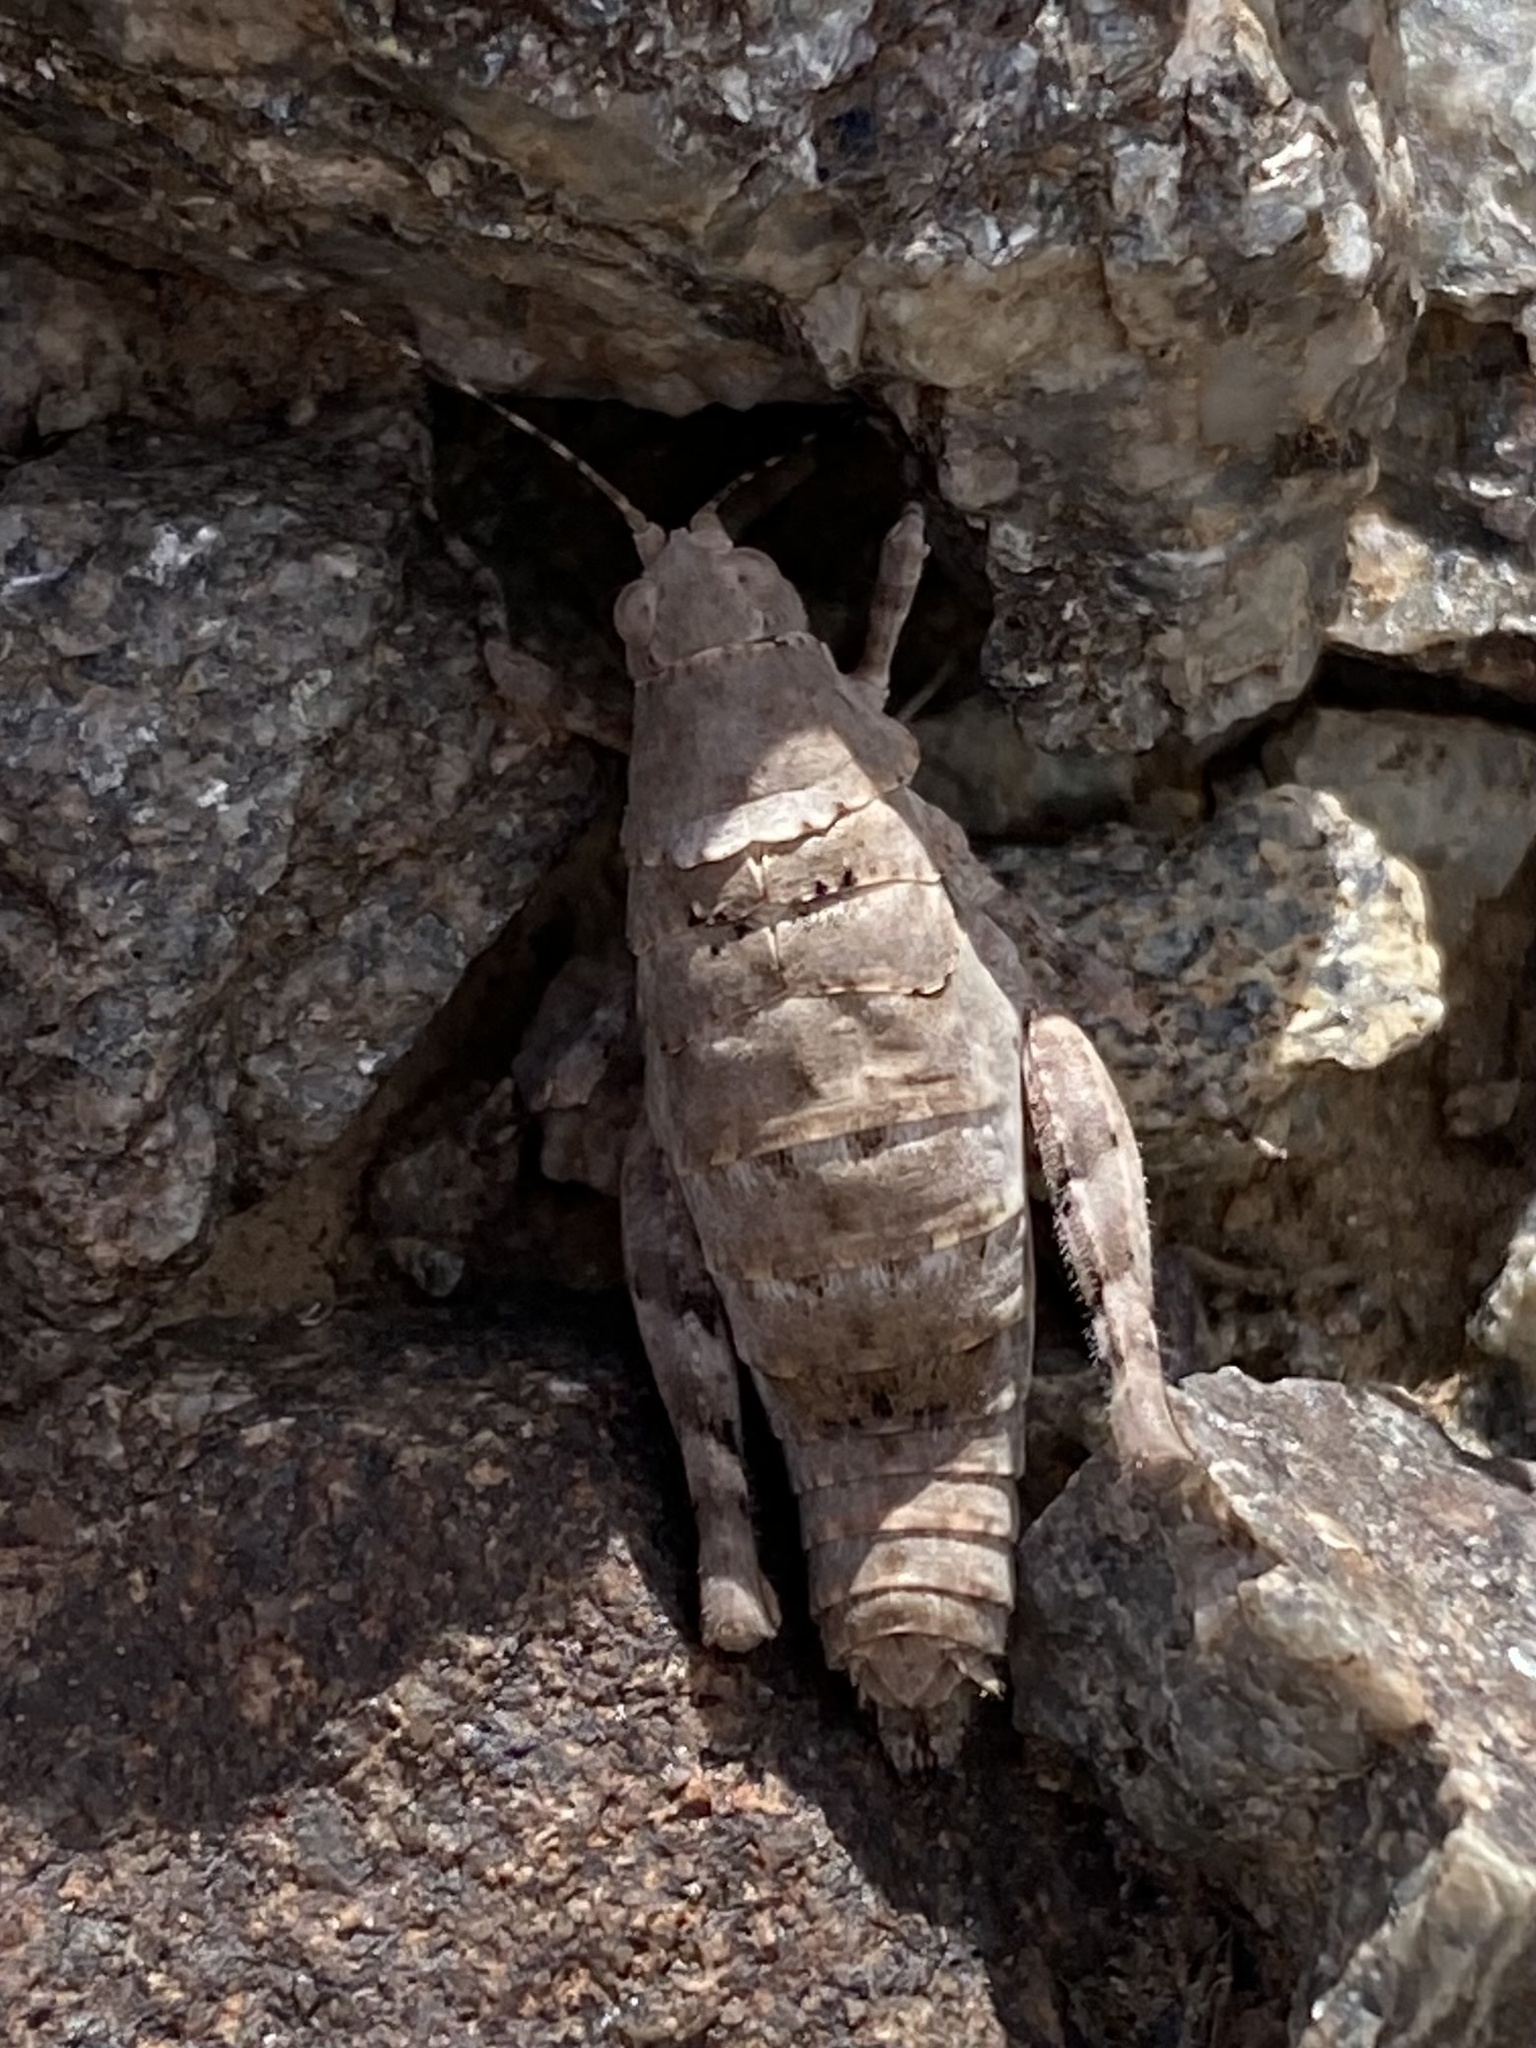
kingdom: Animalia
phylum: Arthropoda
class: Insecta
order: Orthoptera
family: Tanaoceridae
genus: Tanaocerus
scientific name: Tanaocerus koebelei
